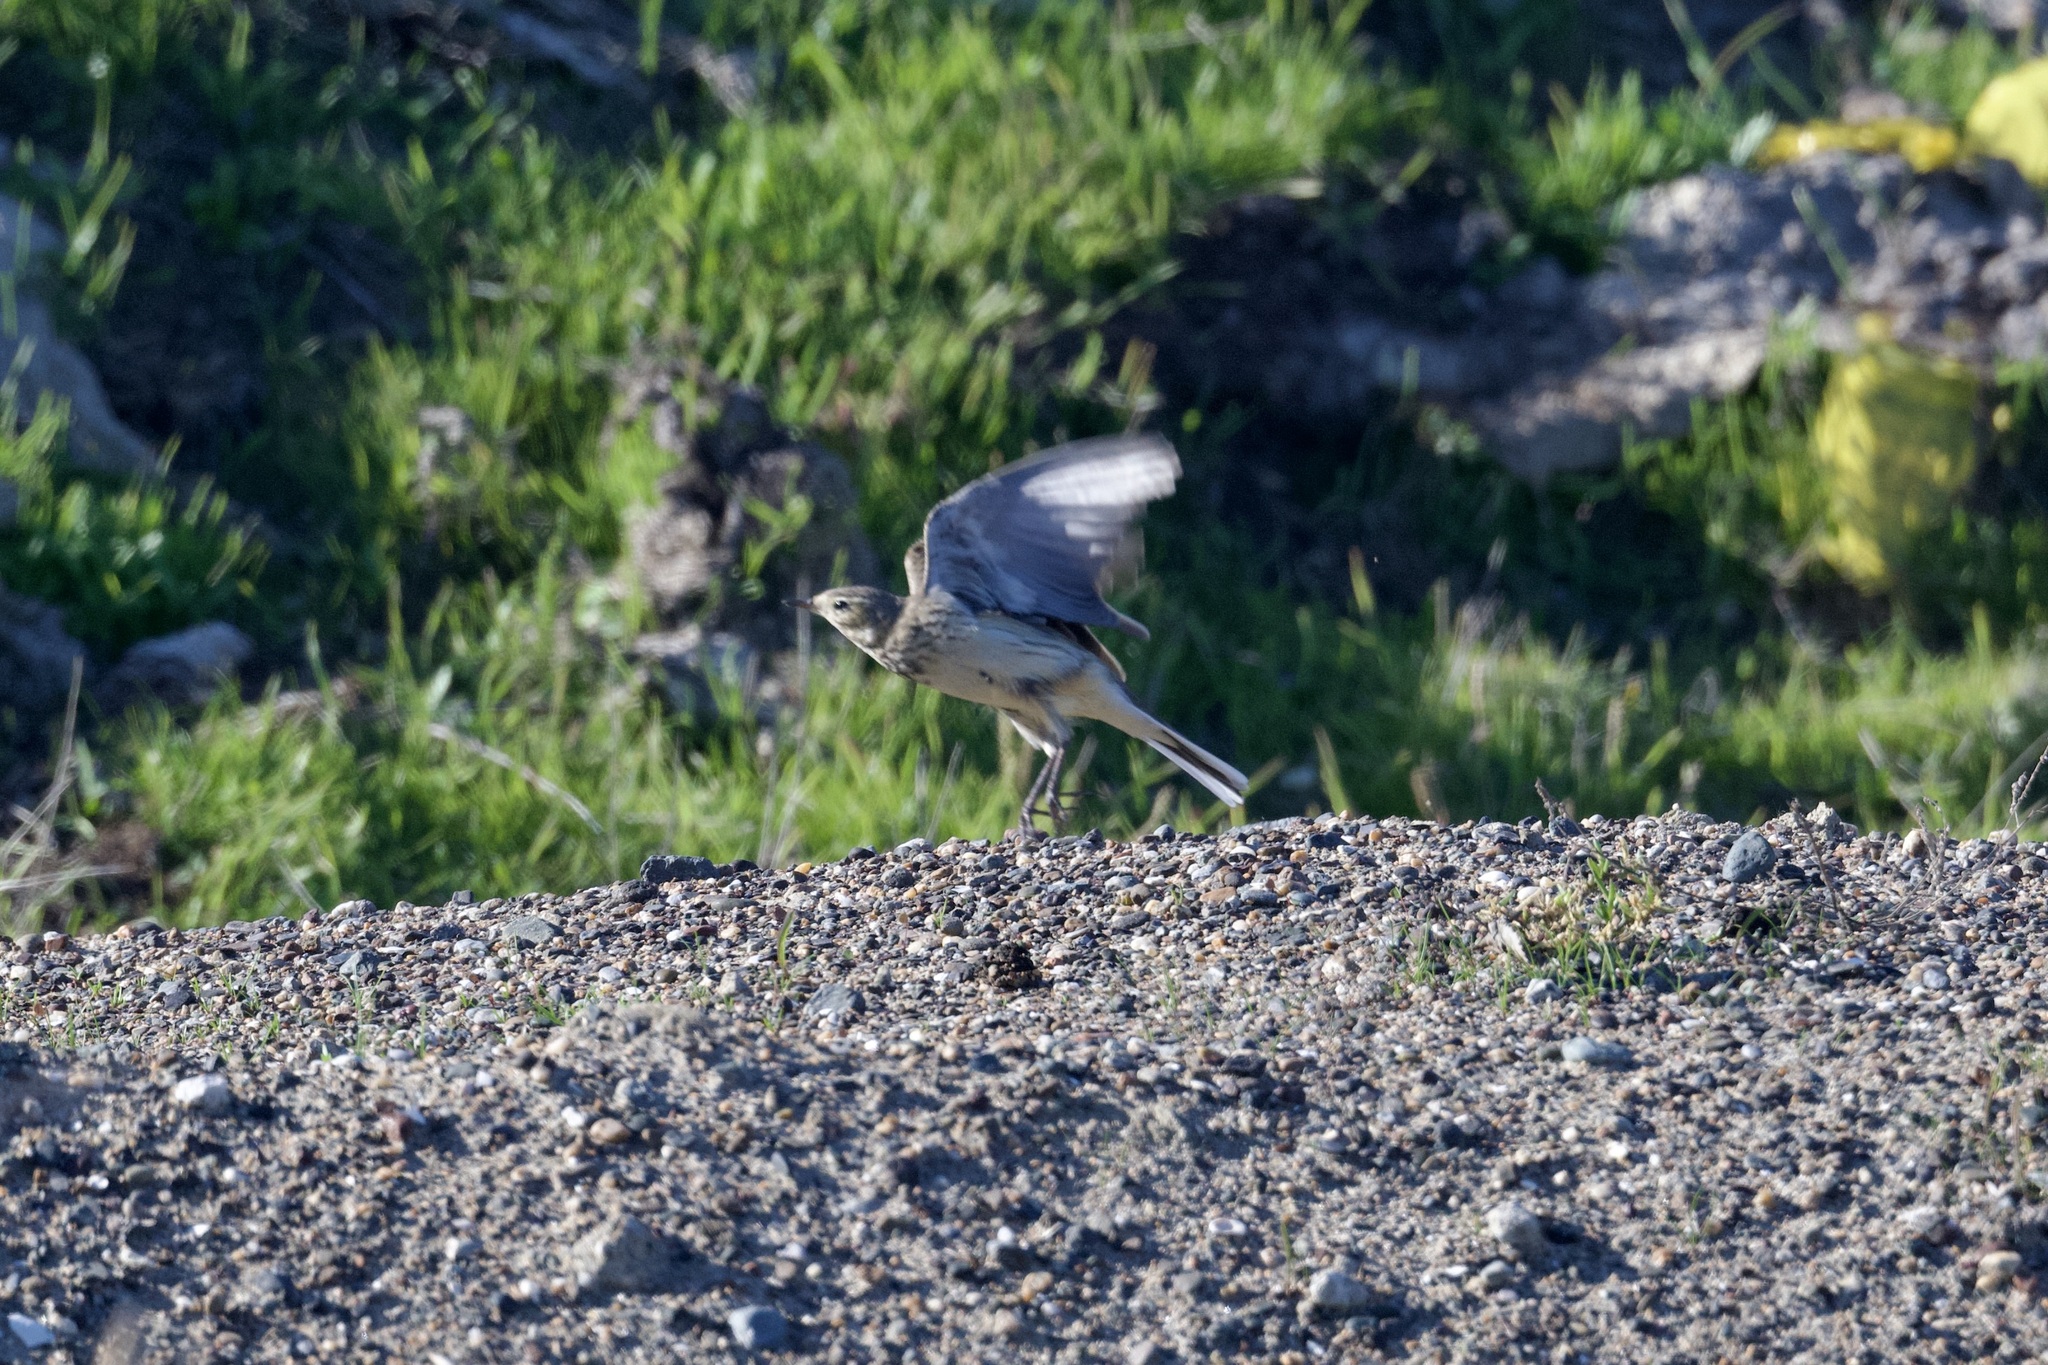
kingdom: Animalia
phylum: Chordata
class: Aves
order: Passeriformes
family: Motacillidae
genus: Anthus
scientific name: Anthus rubescens
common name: Buff-bellied pipit
